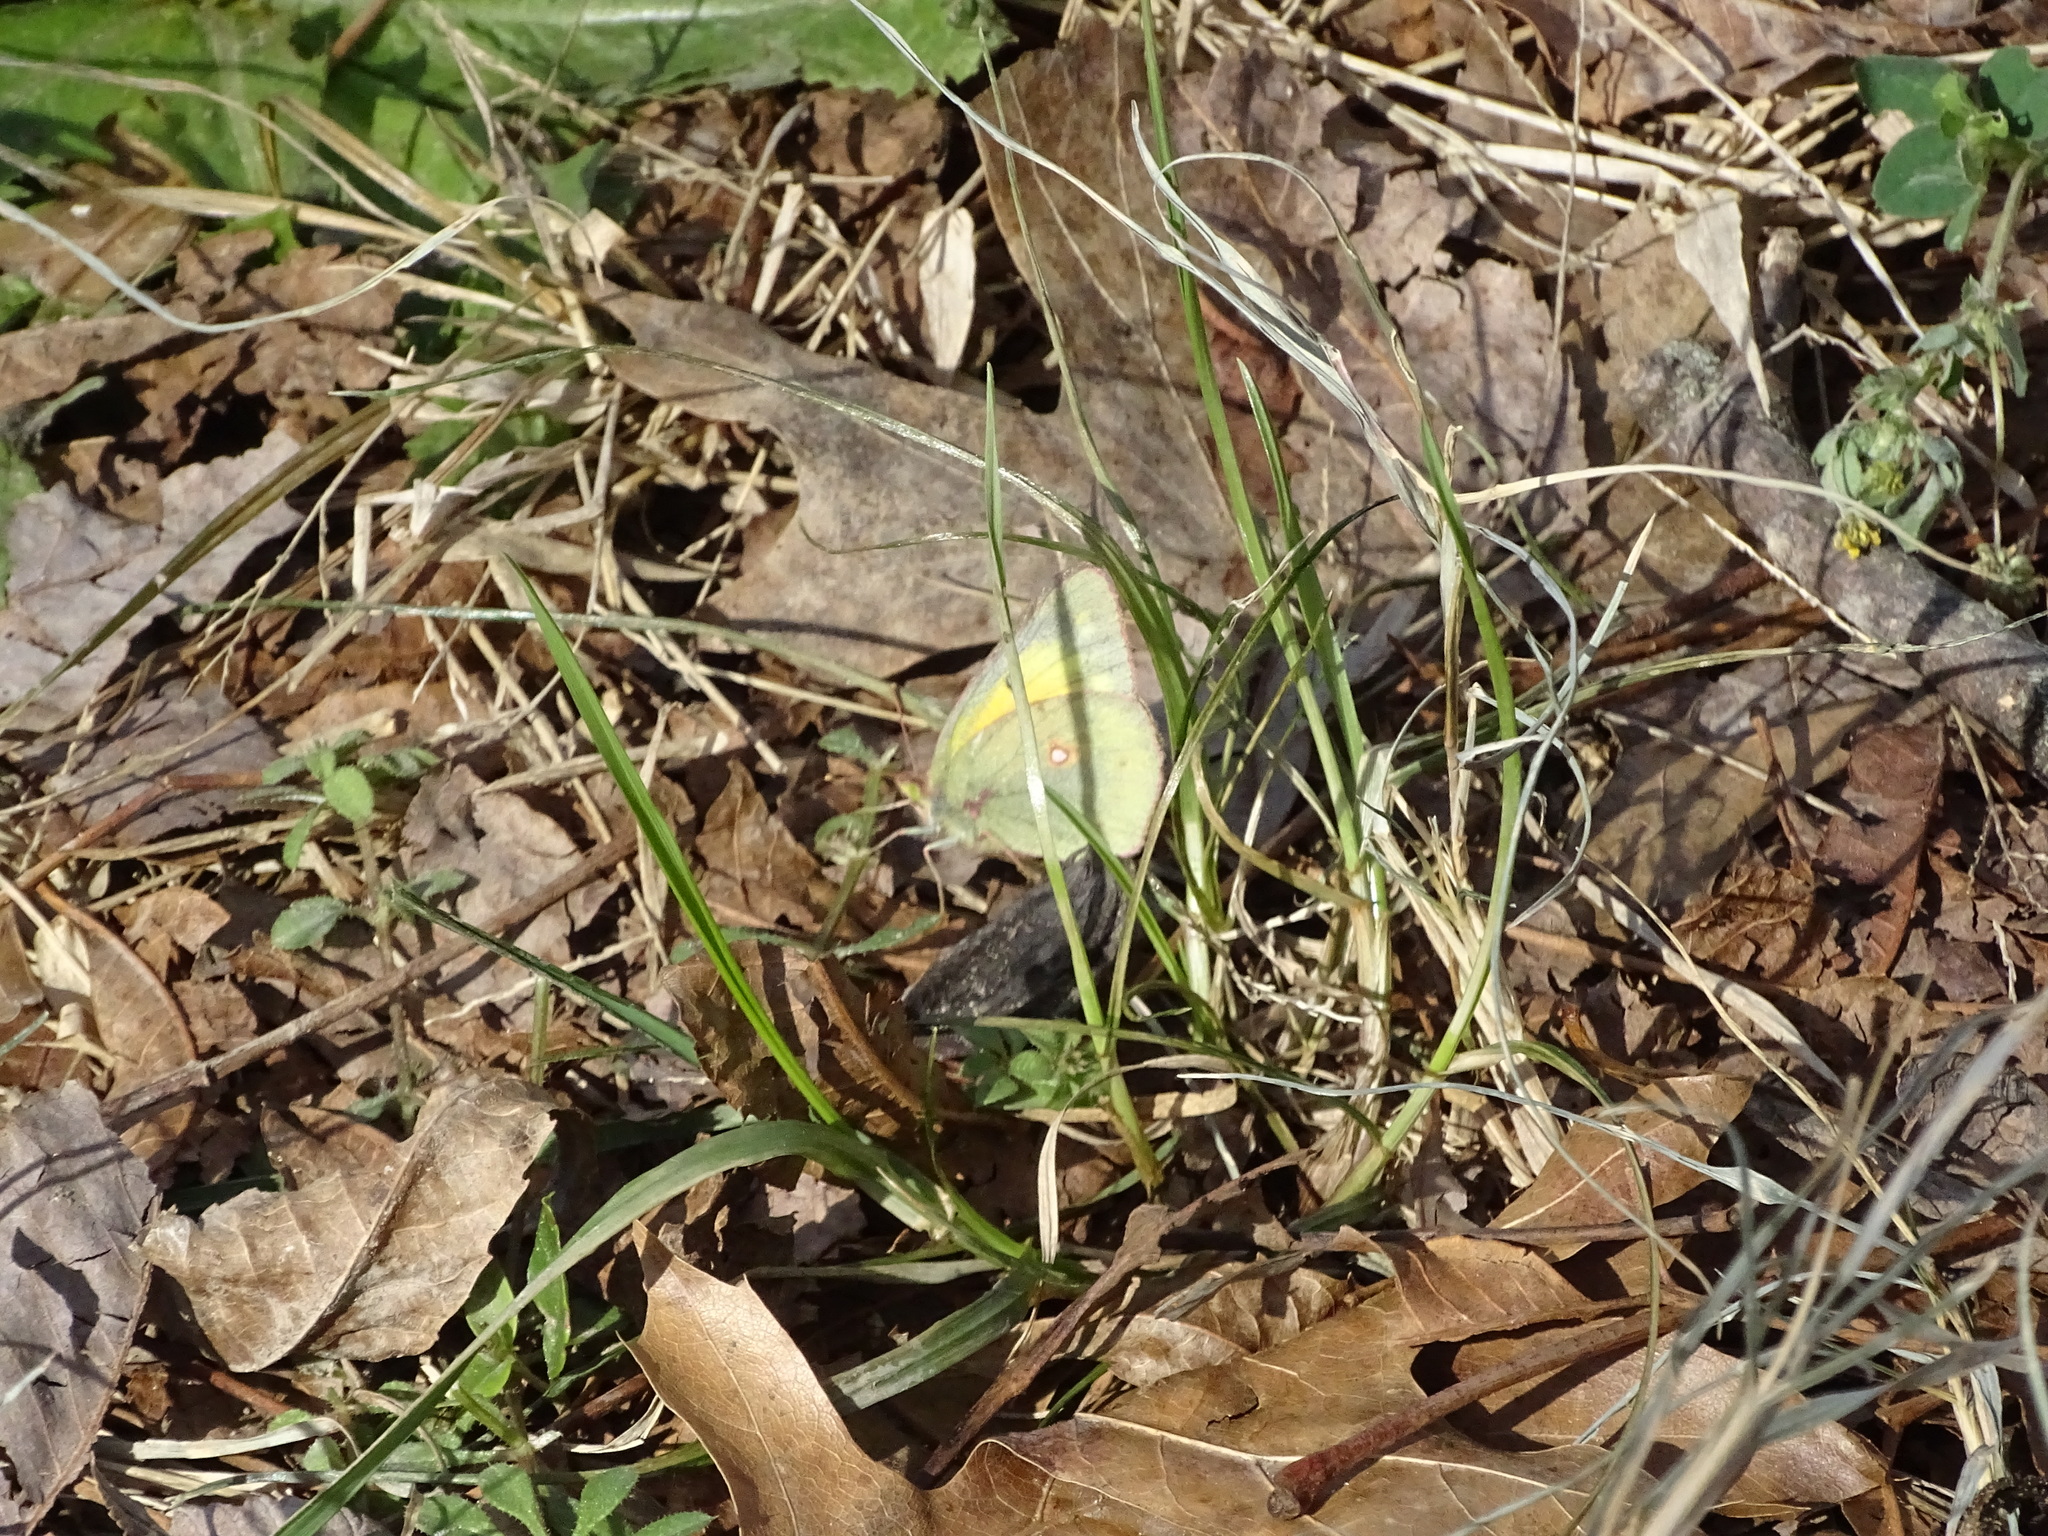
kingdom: Animalia
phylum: Arthropoda
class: Insecta
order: Lepidoptera
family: Pieridae
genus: Colias
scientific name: Colias eurytheme
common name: Alfalfa butterfly
